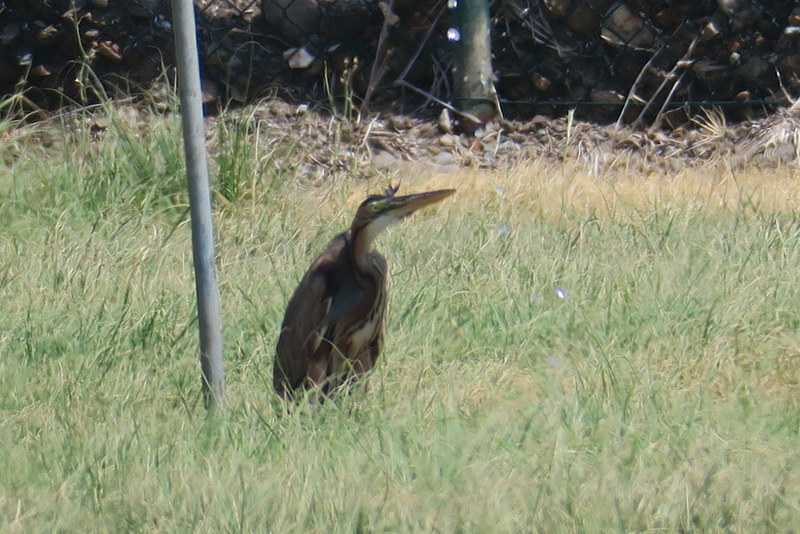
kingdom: Animalia
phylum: Chordata
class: Aves
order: Pelecaniformes
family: Ardeidae
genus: Ardea
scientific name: Ardea purpurea
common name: Purple heron
